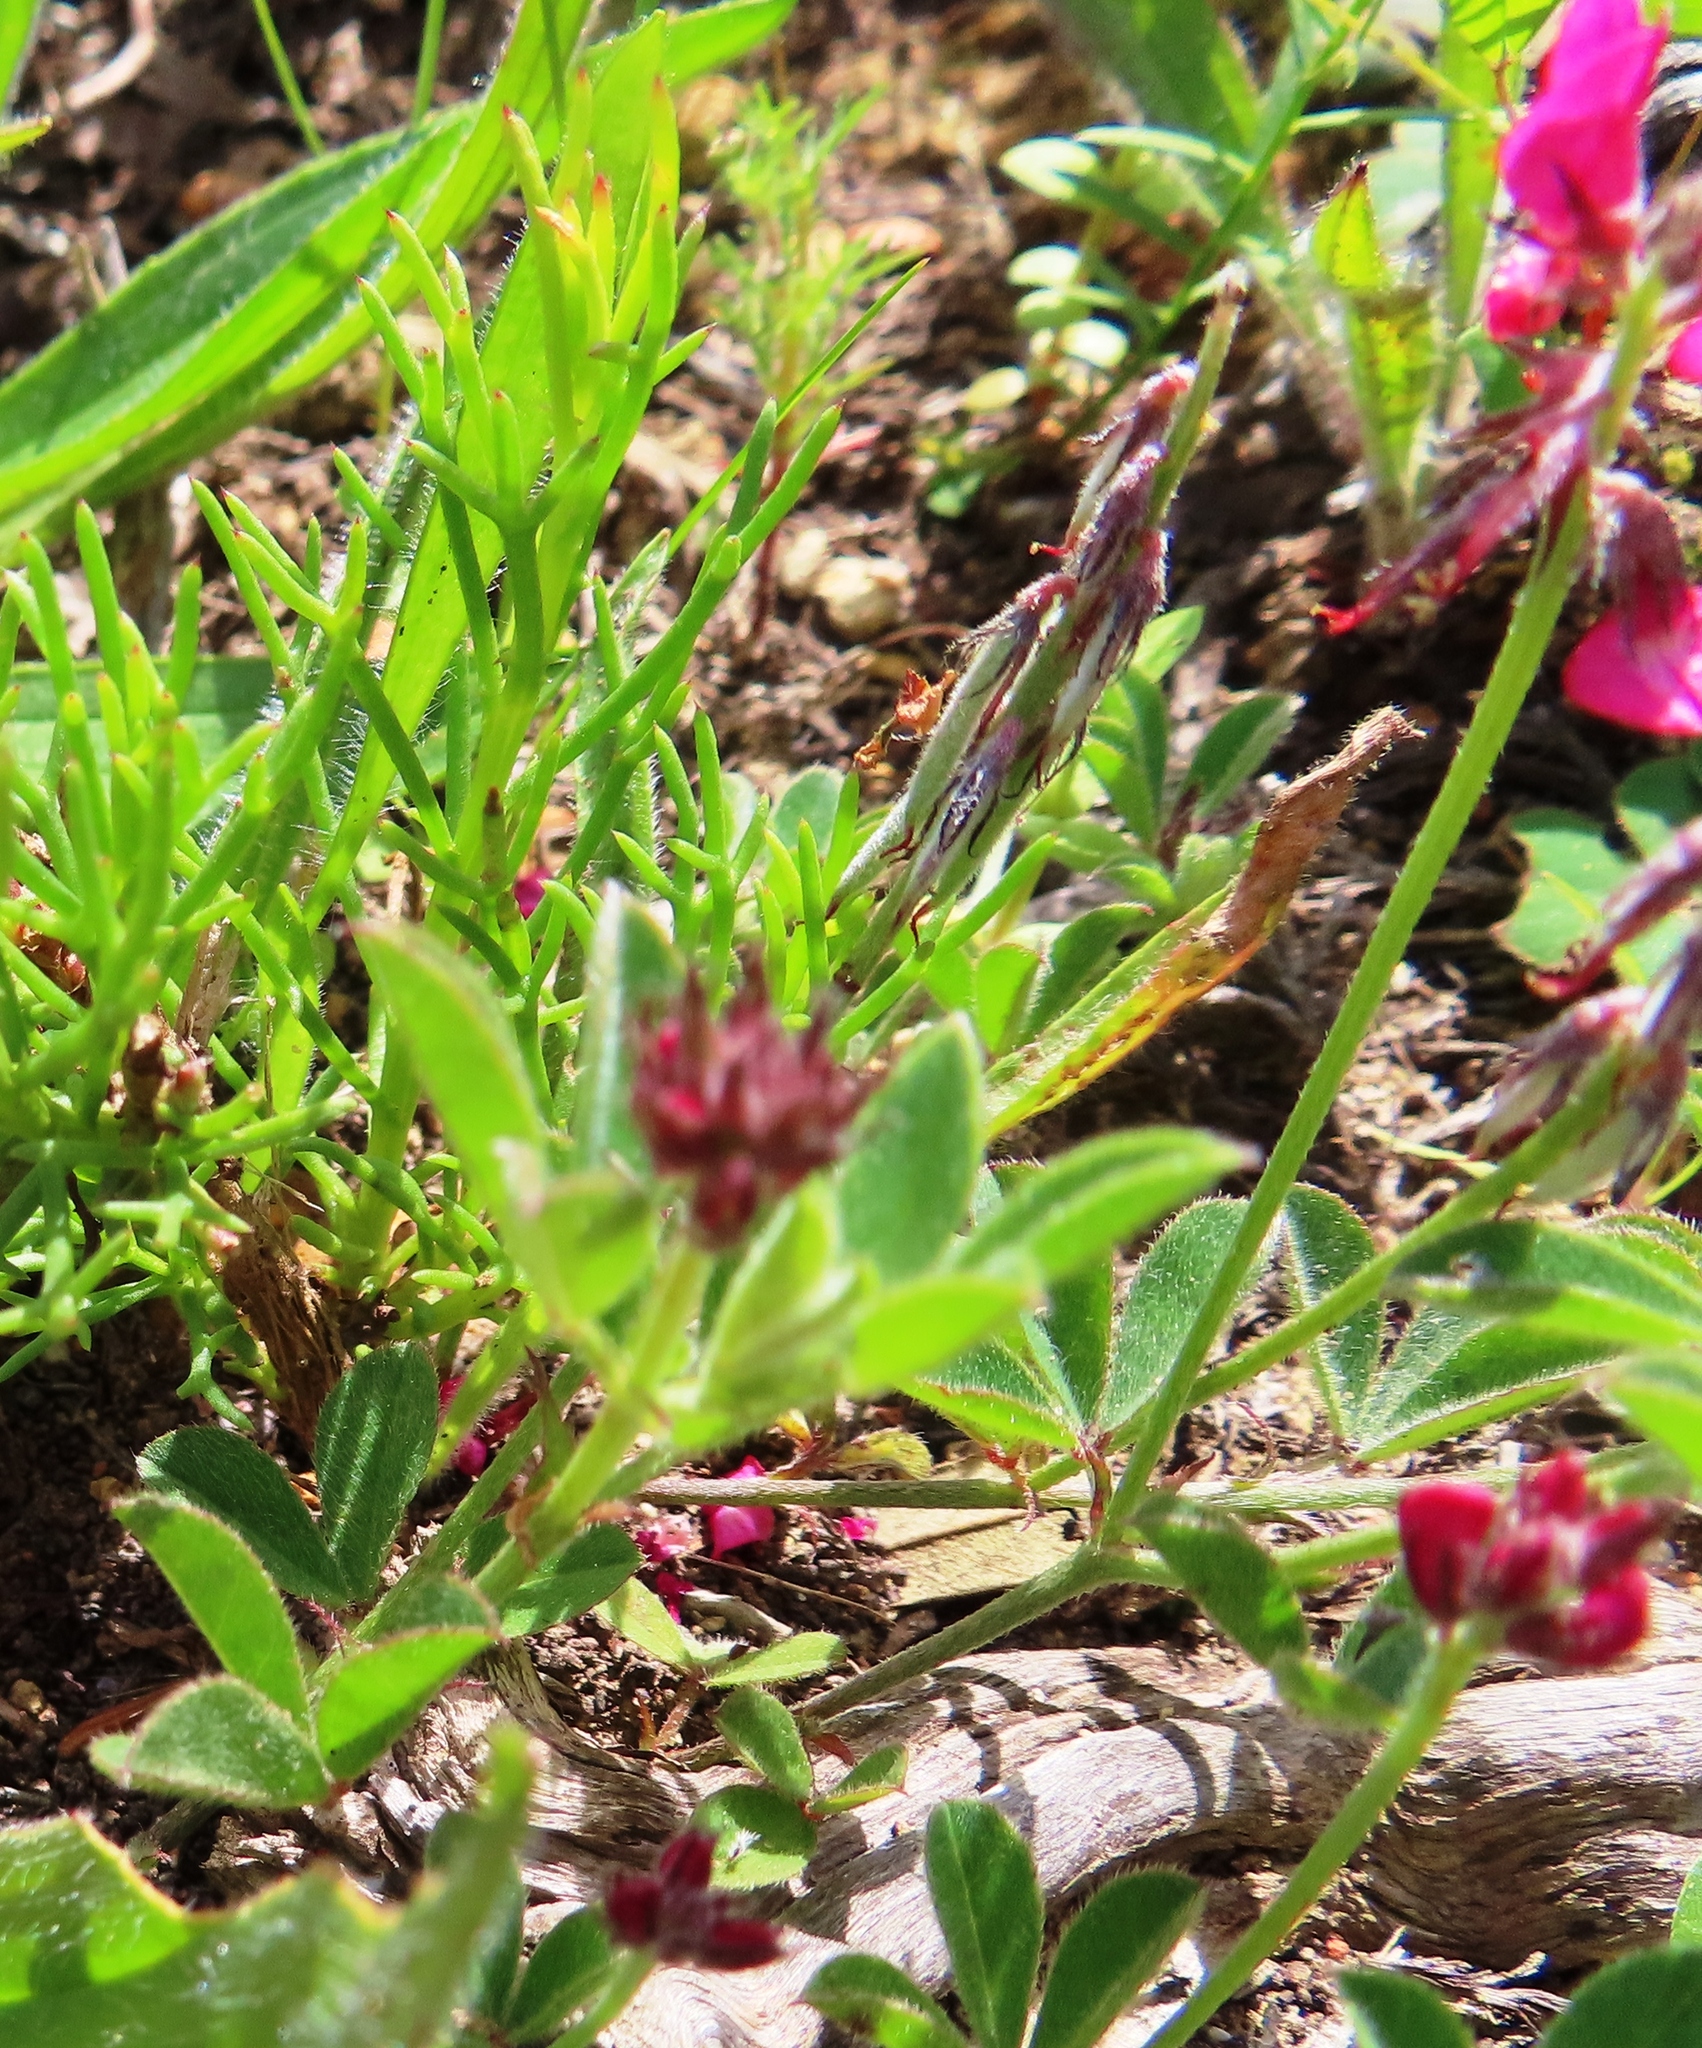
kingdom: Plantae
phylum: Tracheophyta
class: Magnoliopsida
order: Fabales
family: Fabaceae
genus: Indigofera
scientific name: Indigofera incana
